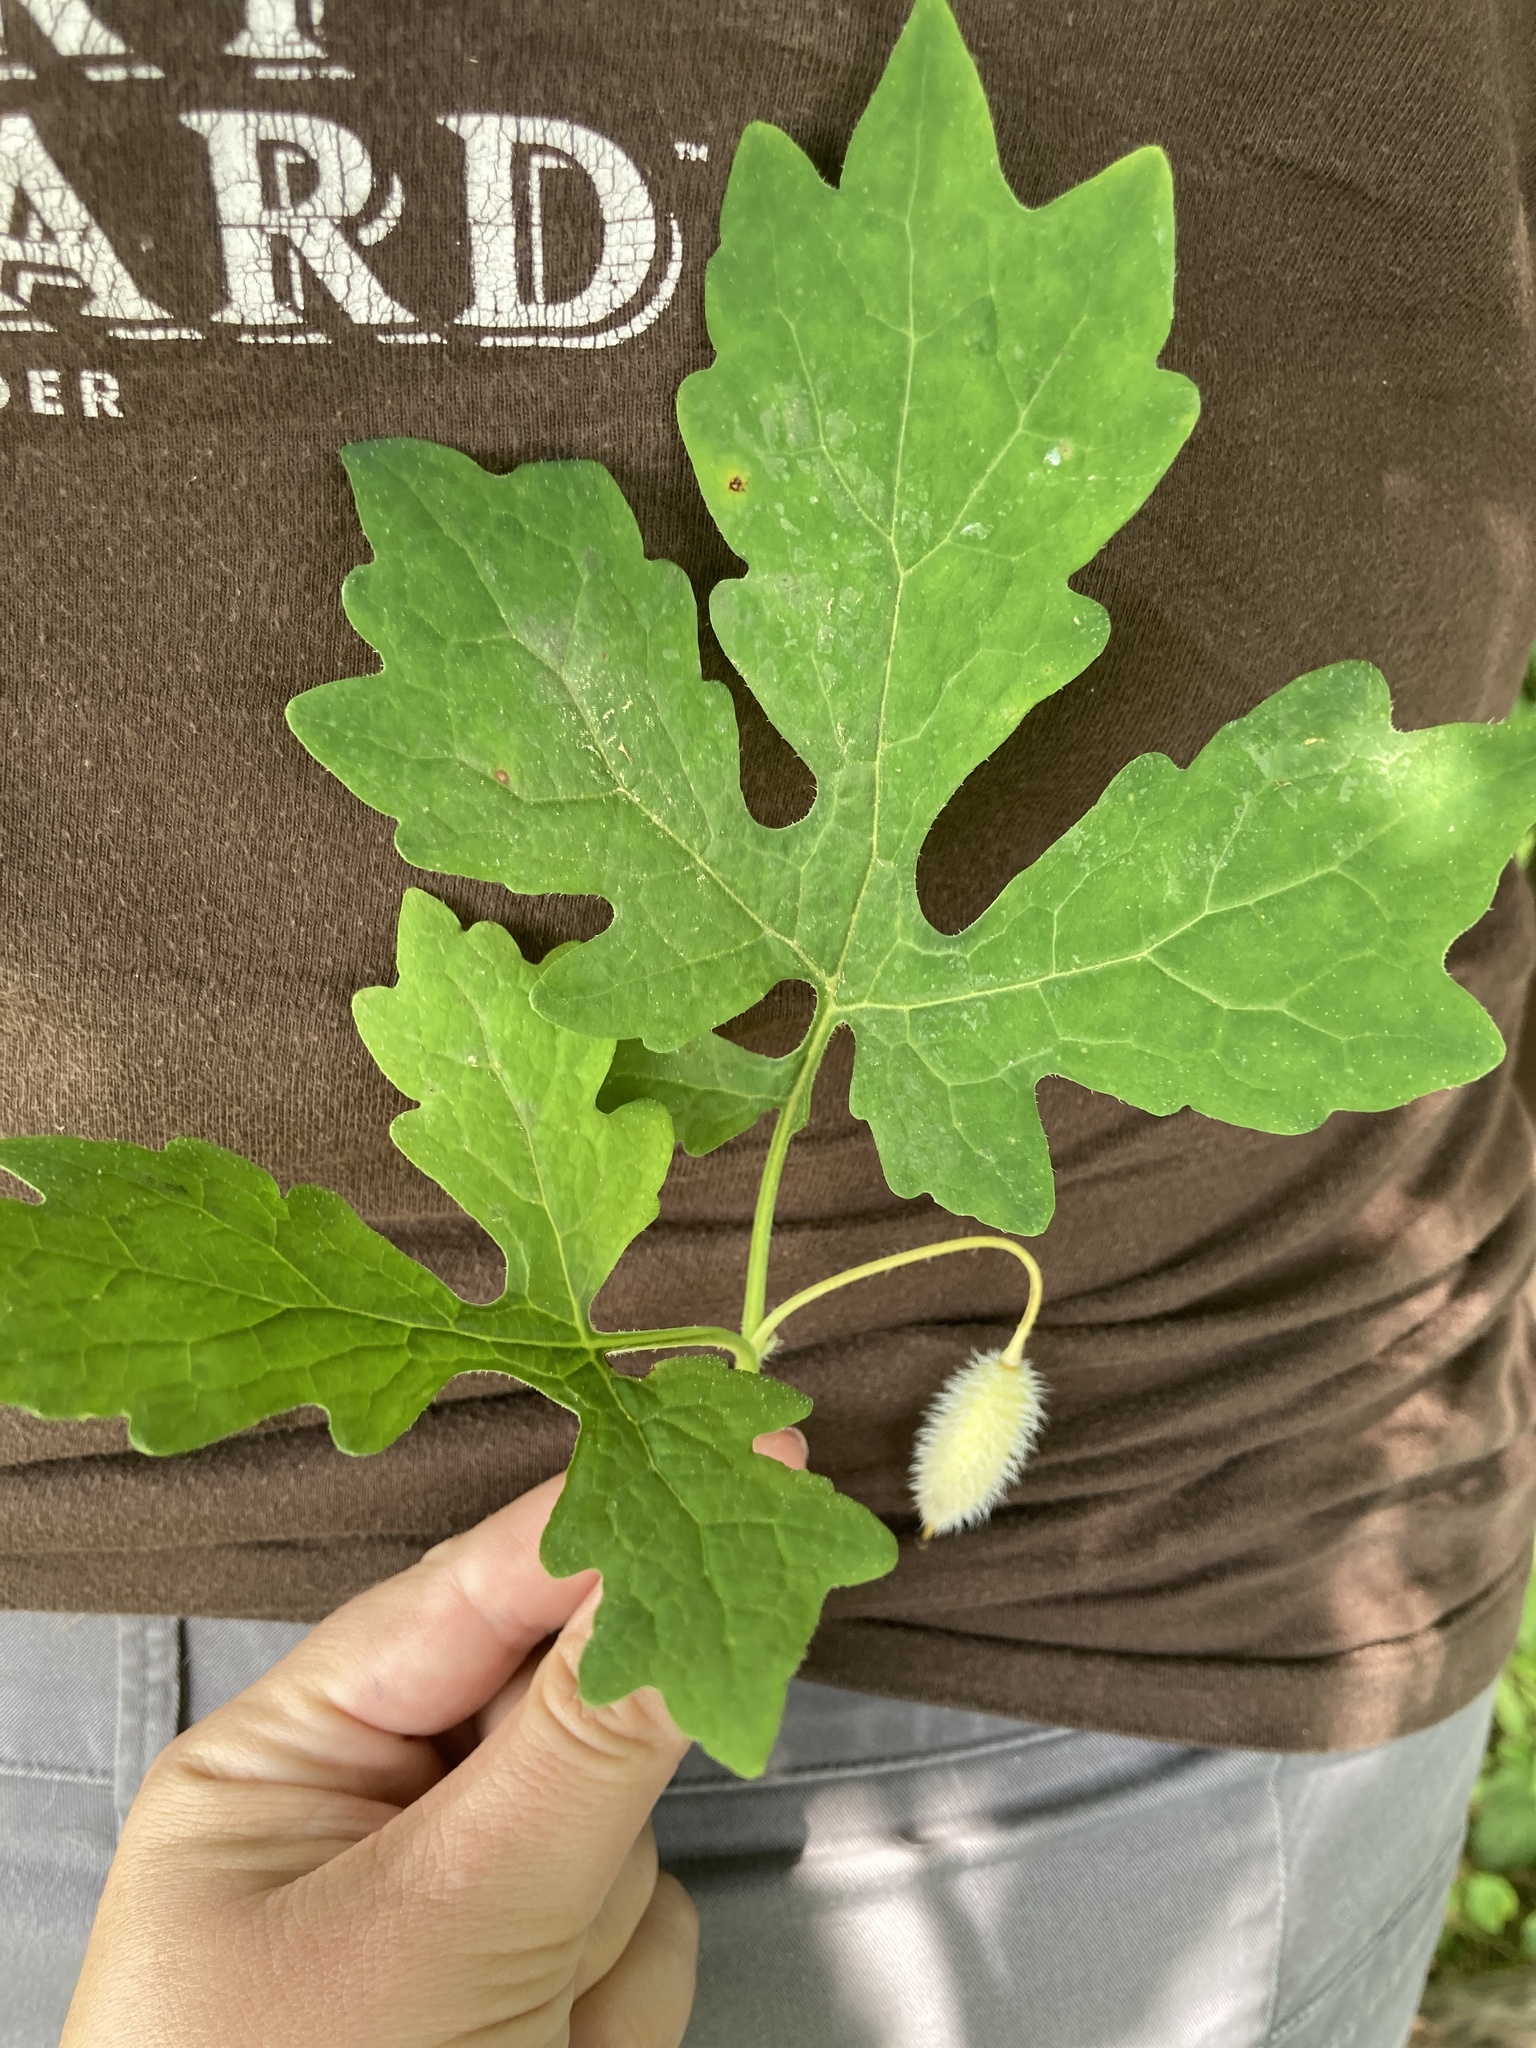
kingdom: Plantae
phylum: Tracheophyta
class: Magnoliopsida
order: Ranunculales
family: Papaveraceae
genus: Stylophorum
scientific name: Stylophorum diphyllum
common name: Celandine poppy
